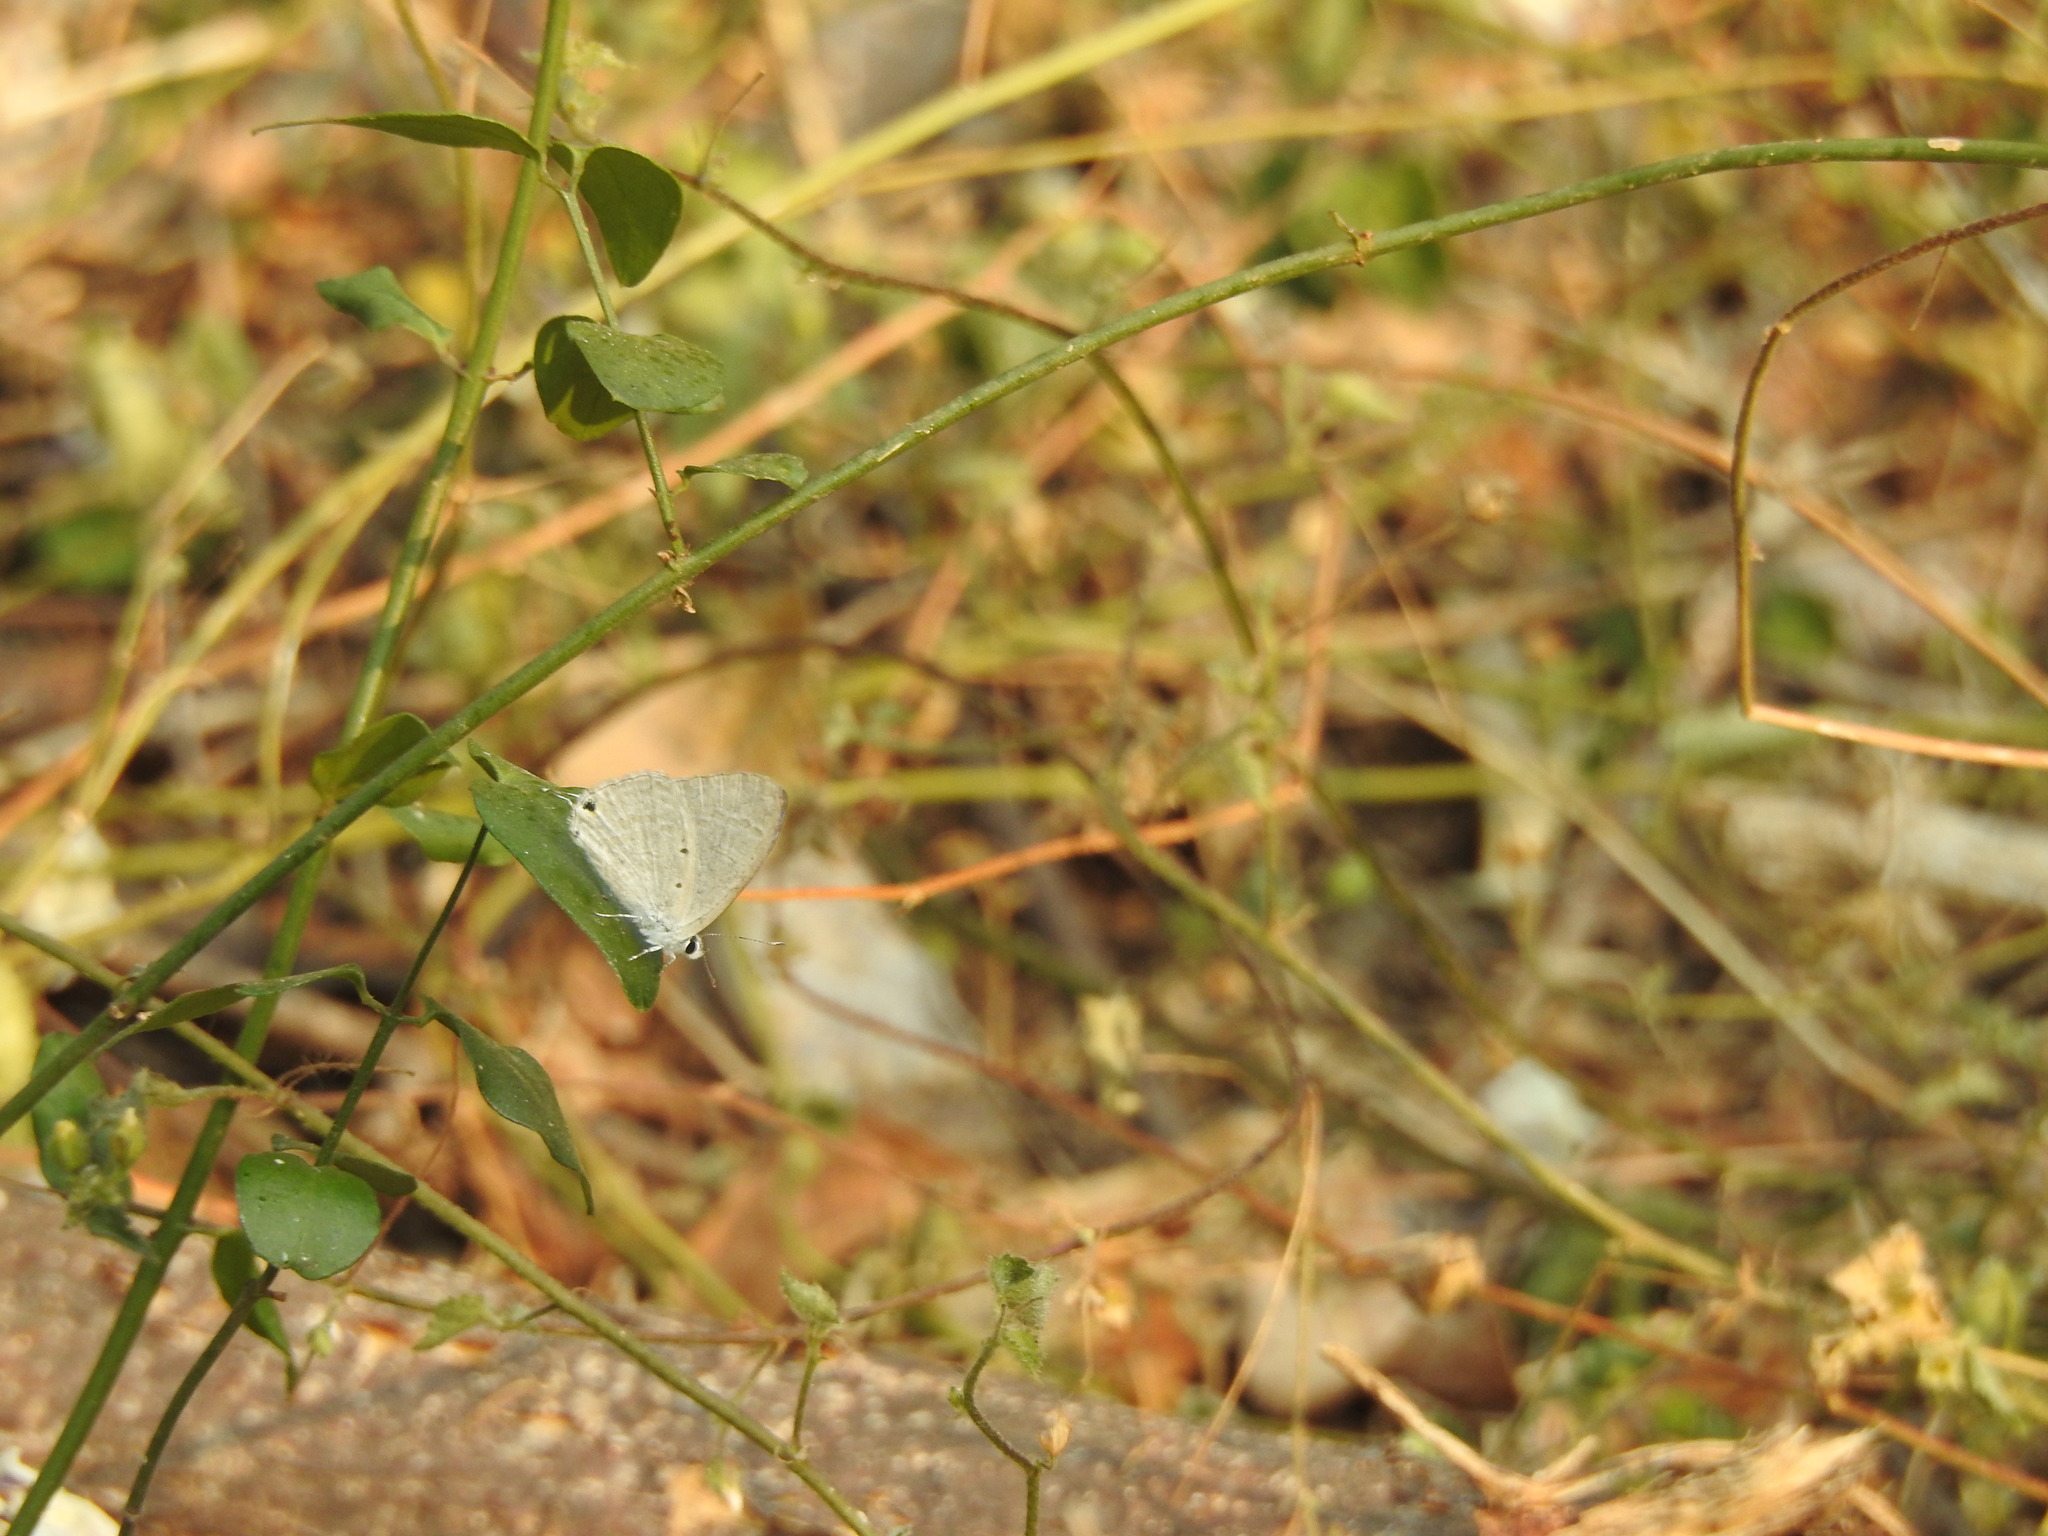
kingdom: Animalia
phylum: Arthropoda
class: Insecta
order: Lepidoptera
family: Lycaenidae
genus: Catochrysops
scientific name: Catochrysops strabo
